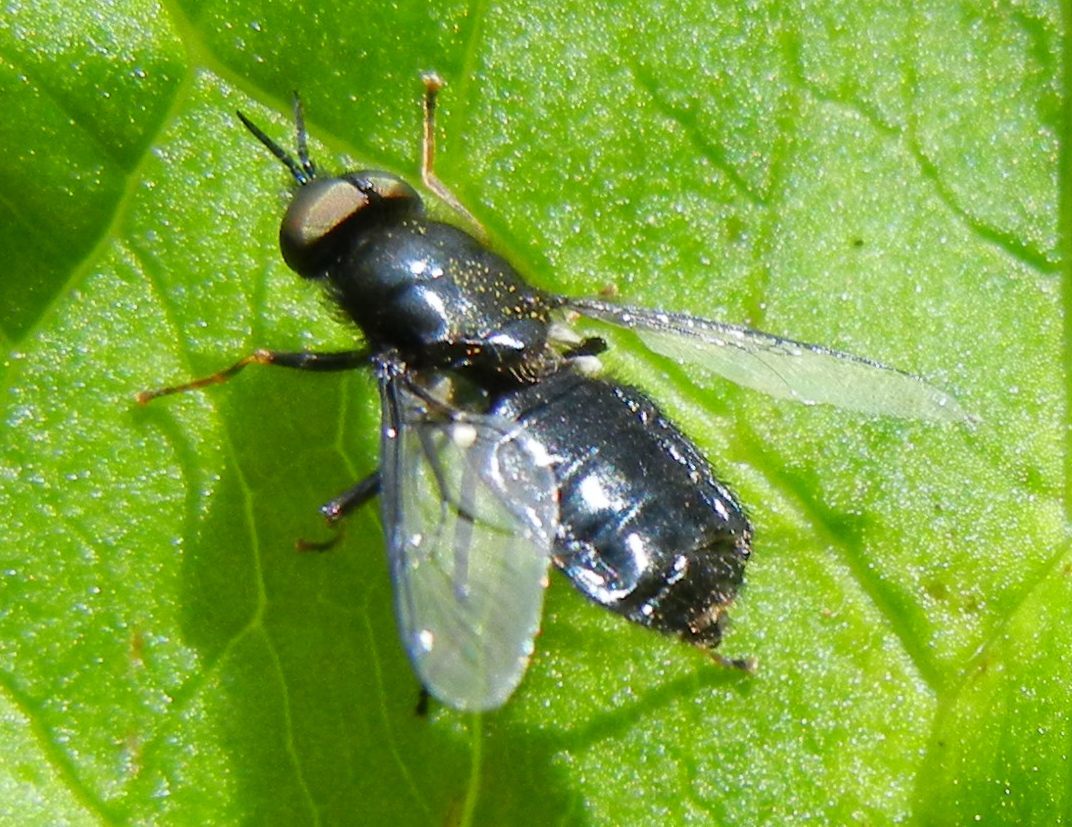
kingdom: Animalia
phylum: Arthropoda
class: Insecta
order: Diptera
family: Stratiomyidae
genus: Odontomyia
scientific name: Odontomyia tigrina
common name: Black colonel
